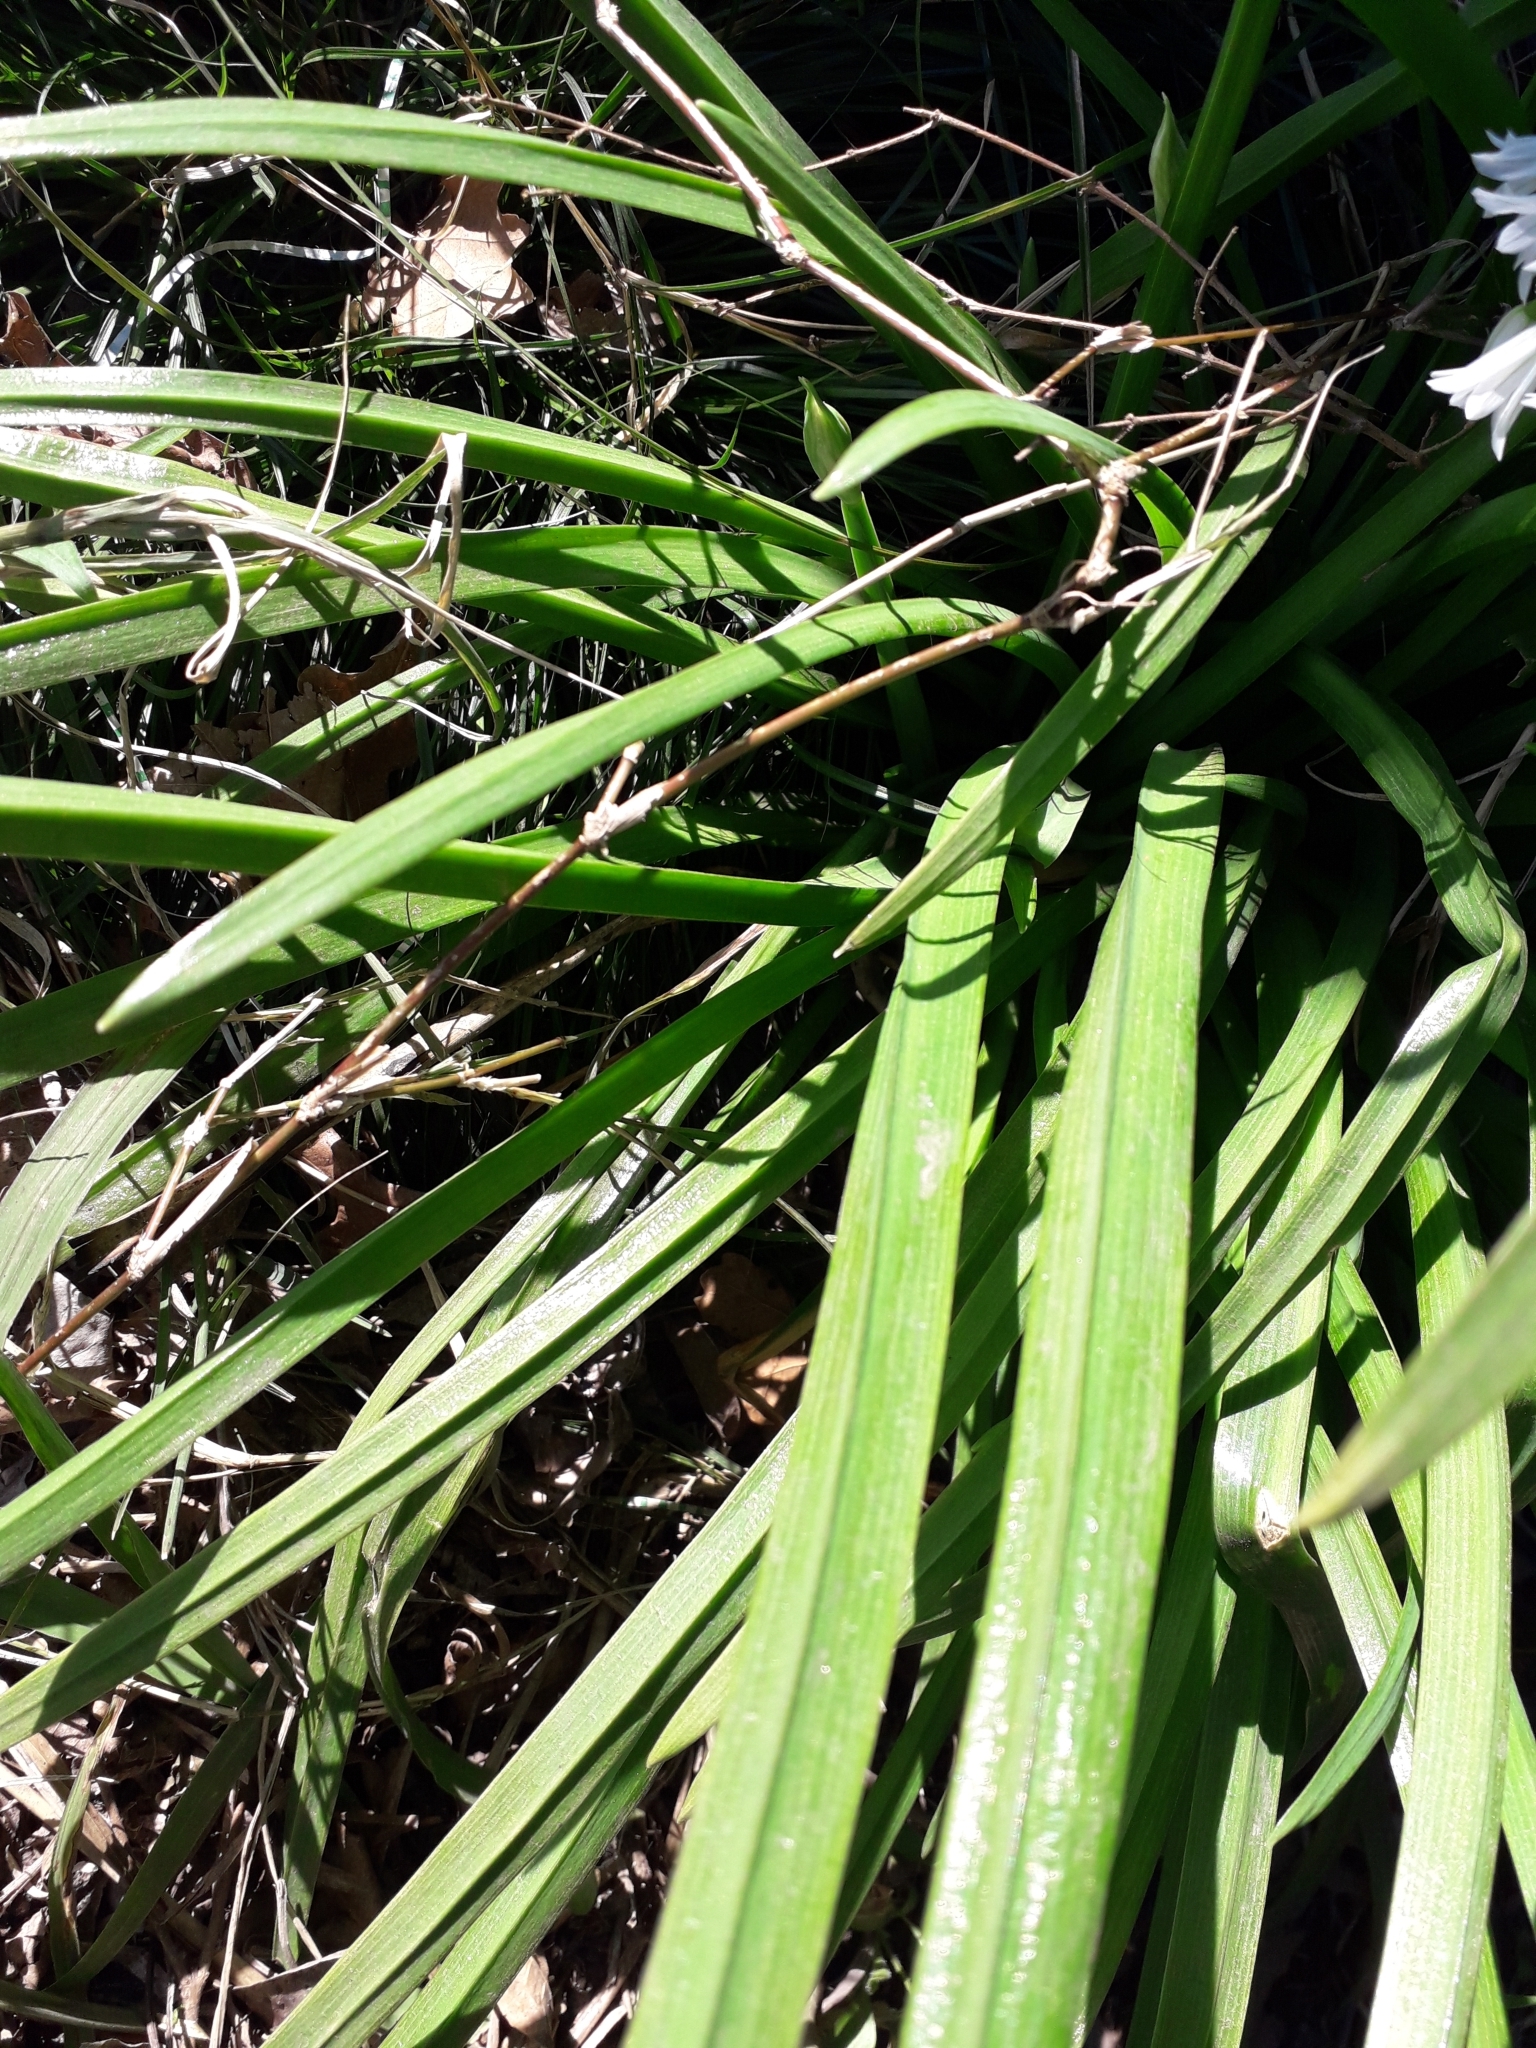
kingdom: Plantae
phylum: Tracheophyta
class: Liliopsida
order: Asparagales
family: Amaryllidaceae
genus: Allium
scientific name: Allium triquetrum
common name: Three-cornered garlic
